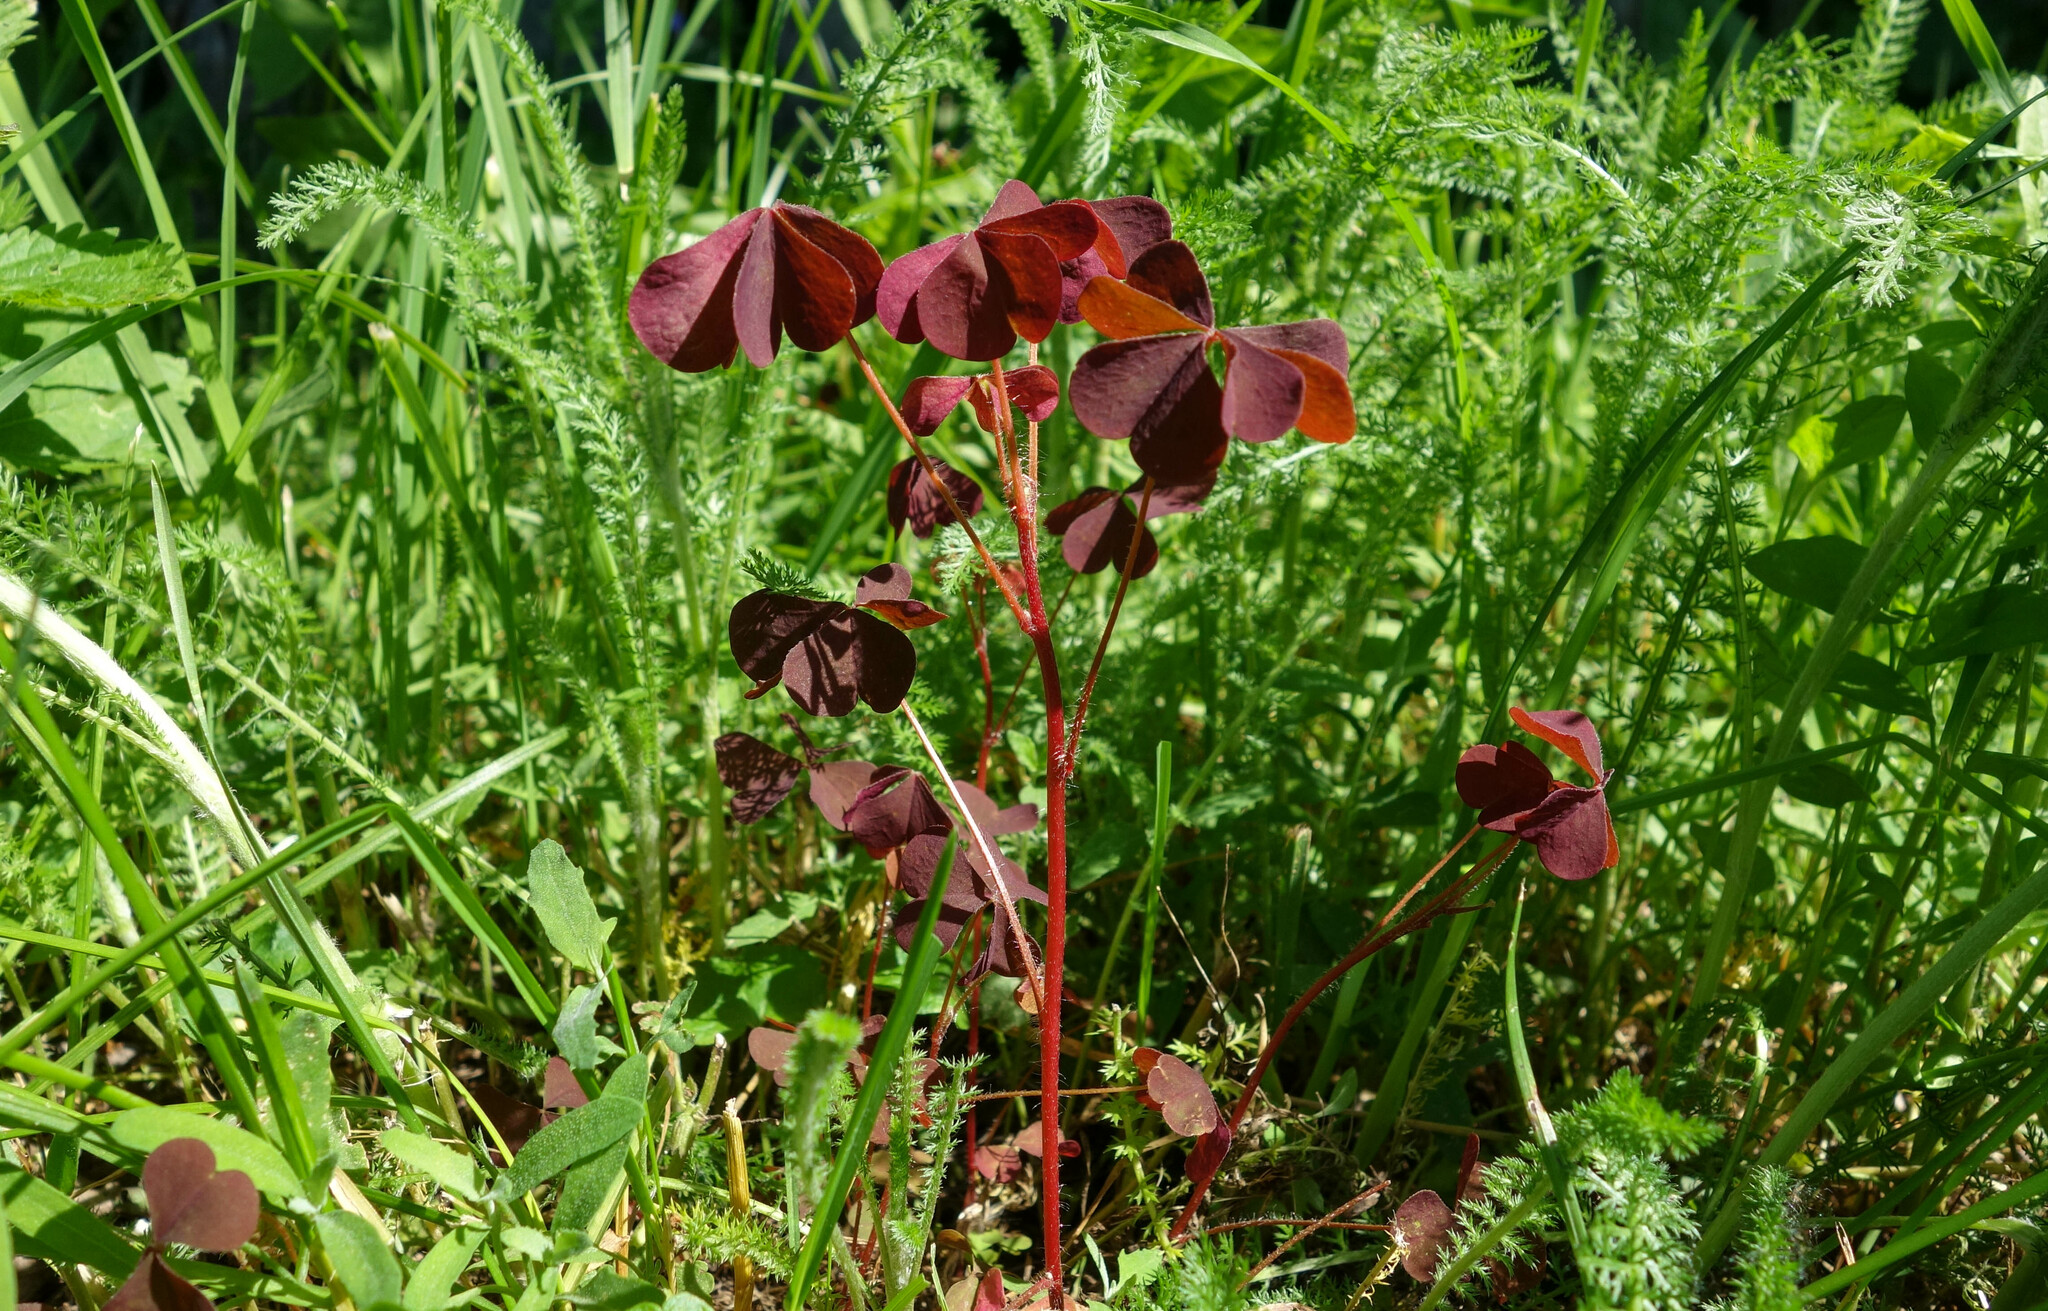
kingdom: Plantae
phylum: Tracheophyta
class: Magnoliopsida
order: Oxalidales
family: Oxalidaceae
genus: Oxalis
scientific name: Oxalis stricta
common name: Upright yellow-sorrel
